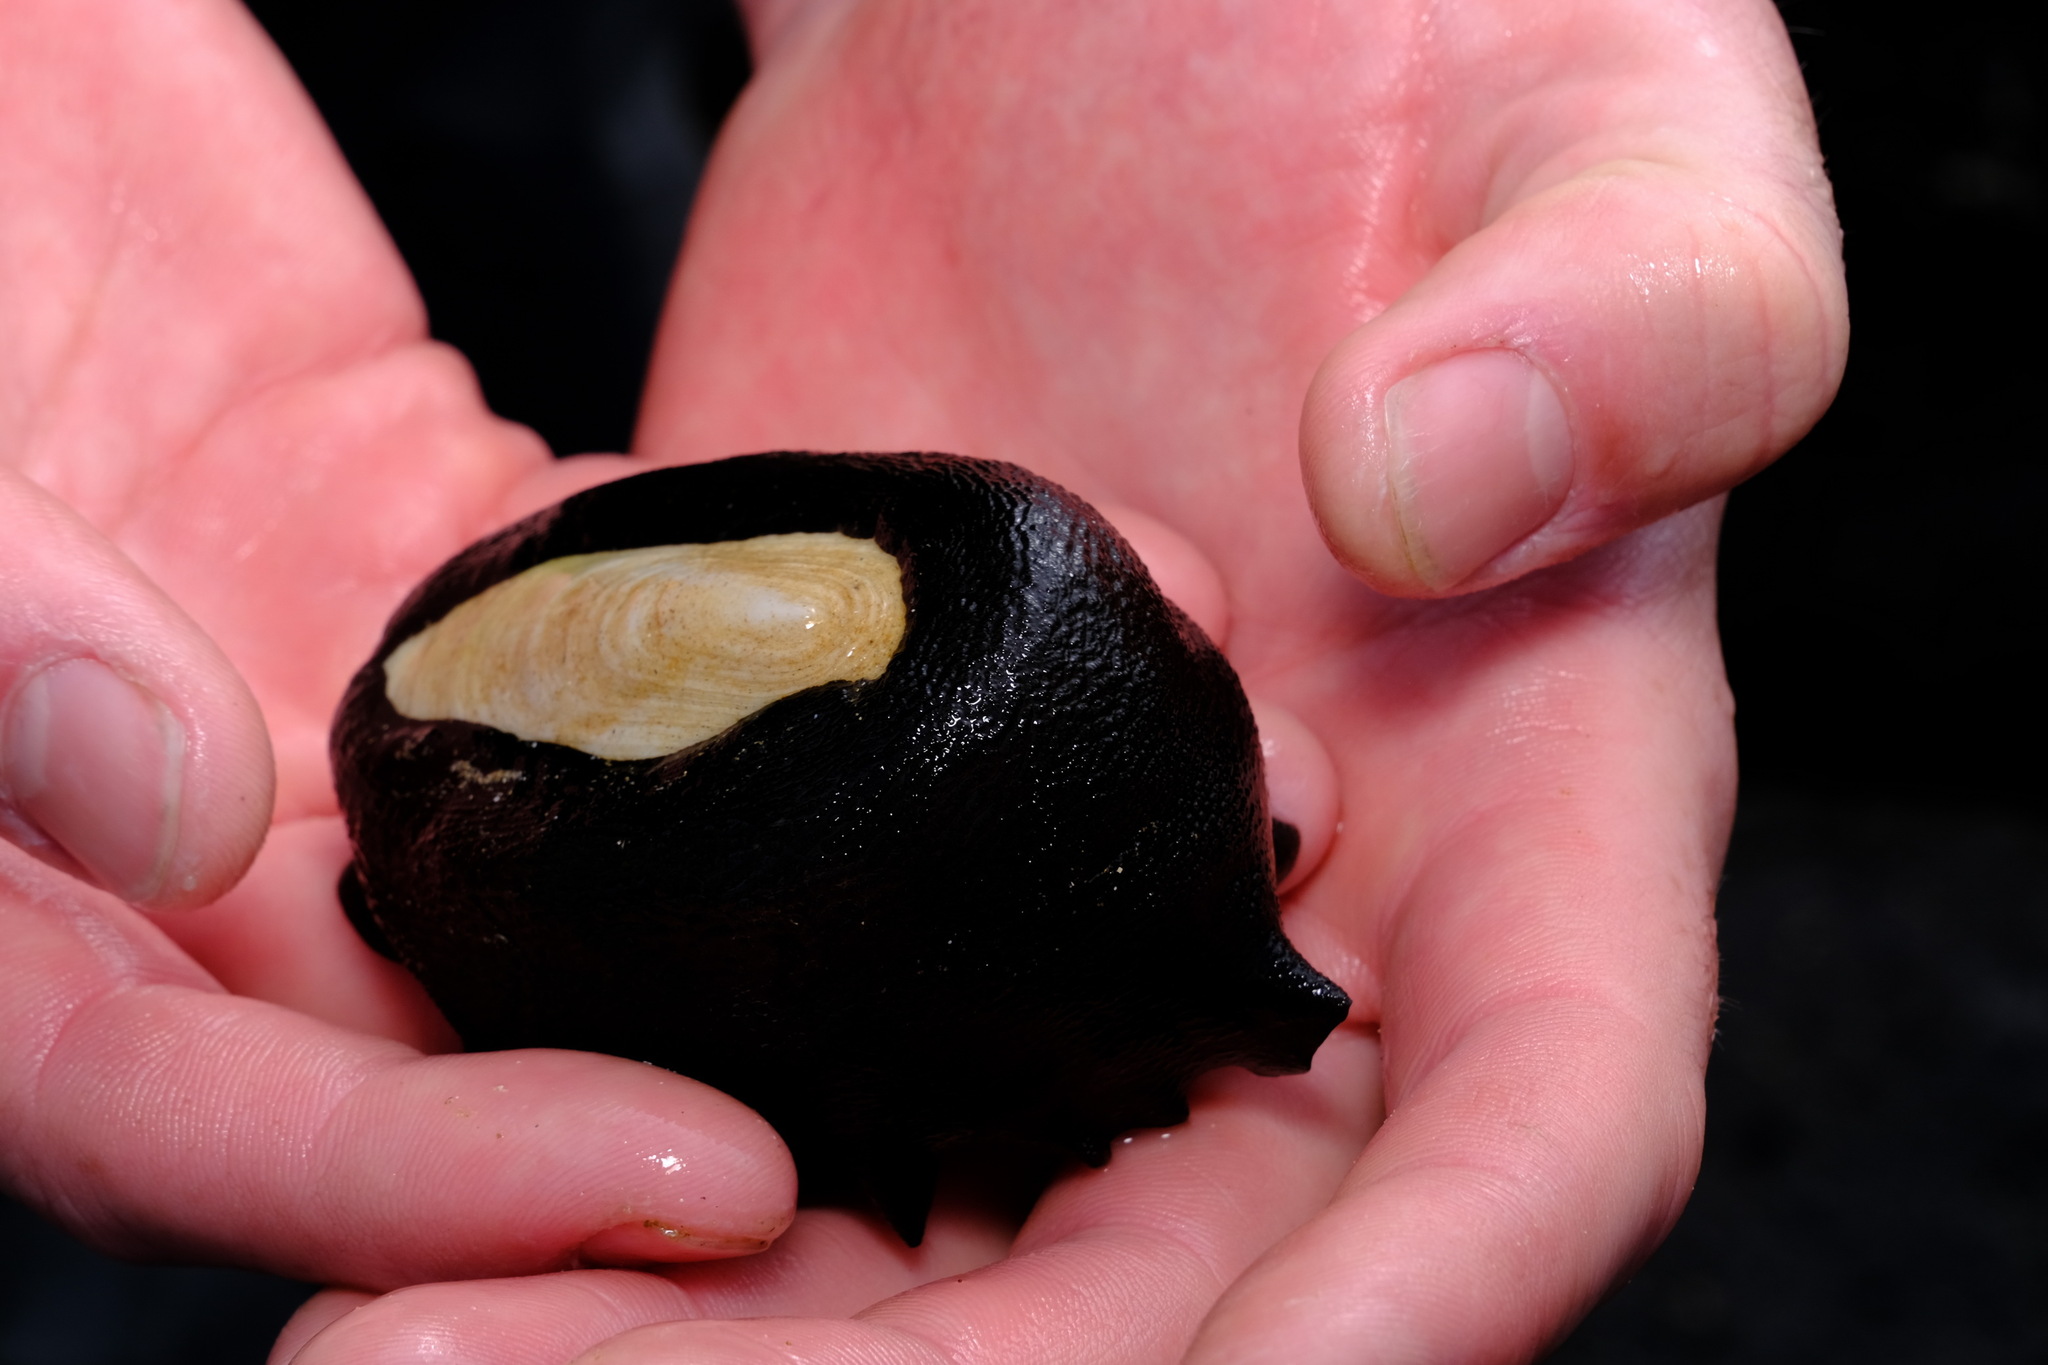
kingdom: Animalia
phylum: Mollusca
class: Gastropoda
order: Lepetellida
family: Fissurellidae
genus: Scutus
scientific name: Scutus antipodes
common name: Duckbill shell
